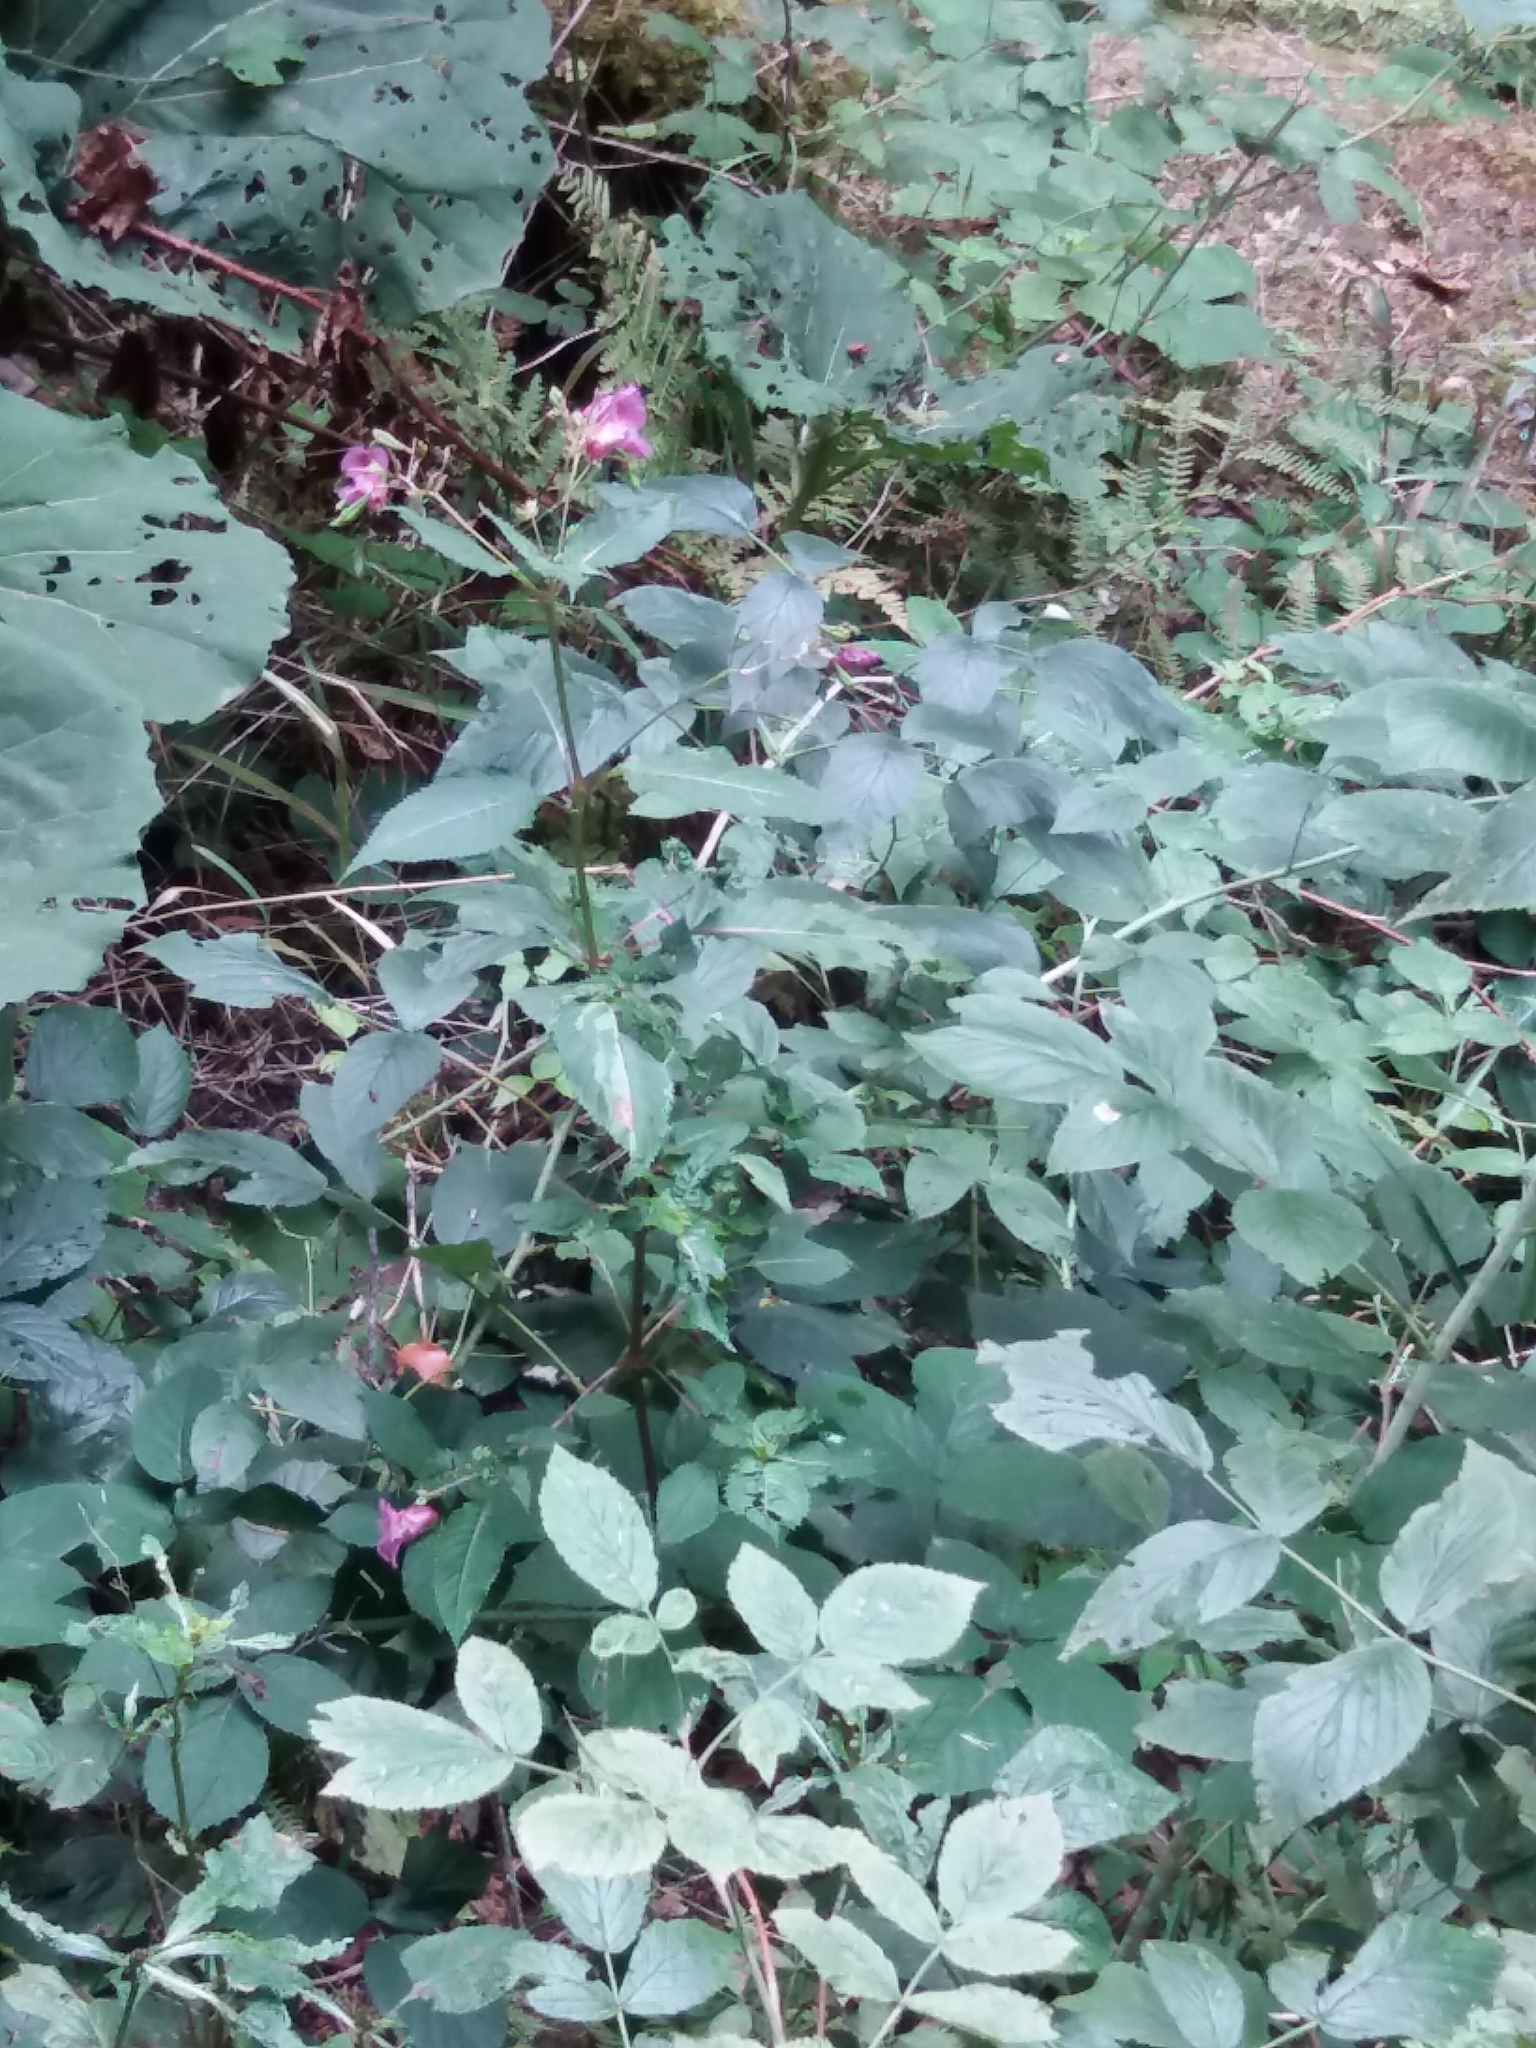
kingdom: Plantae
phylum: Tracheophyta
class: Magnoliopsida
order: Ericales
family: Balsaminaceae
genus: Impatiens
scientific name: Impatiens glandulifera
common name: Himalayan balsam
